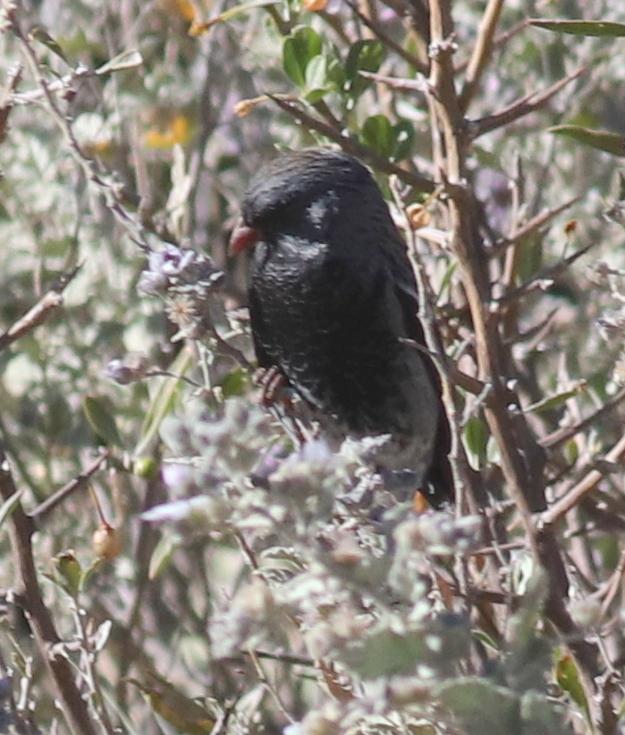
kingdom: Animalia
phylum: Chordata
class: Aves
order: Passeriformes
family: Thraupidae
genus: Rhopospina
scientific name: Rhopospina fruticeti
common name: Mourning sierra finch
